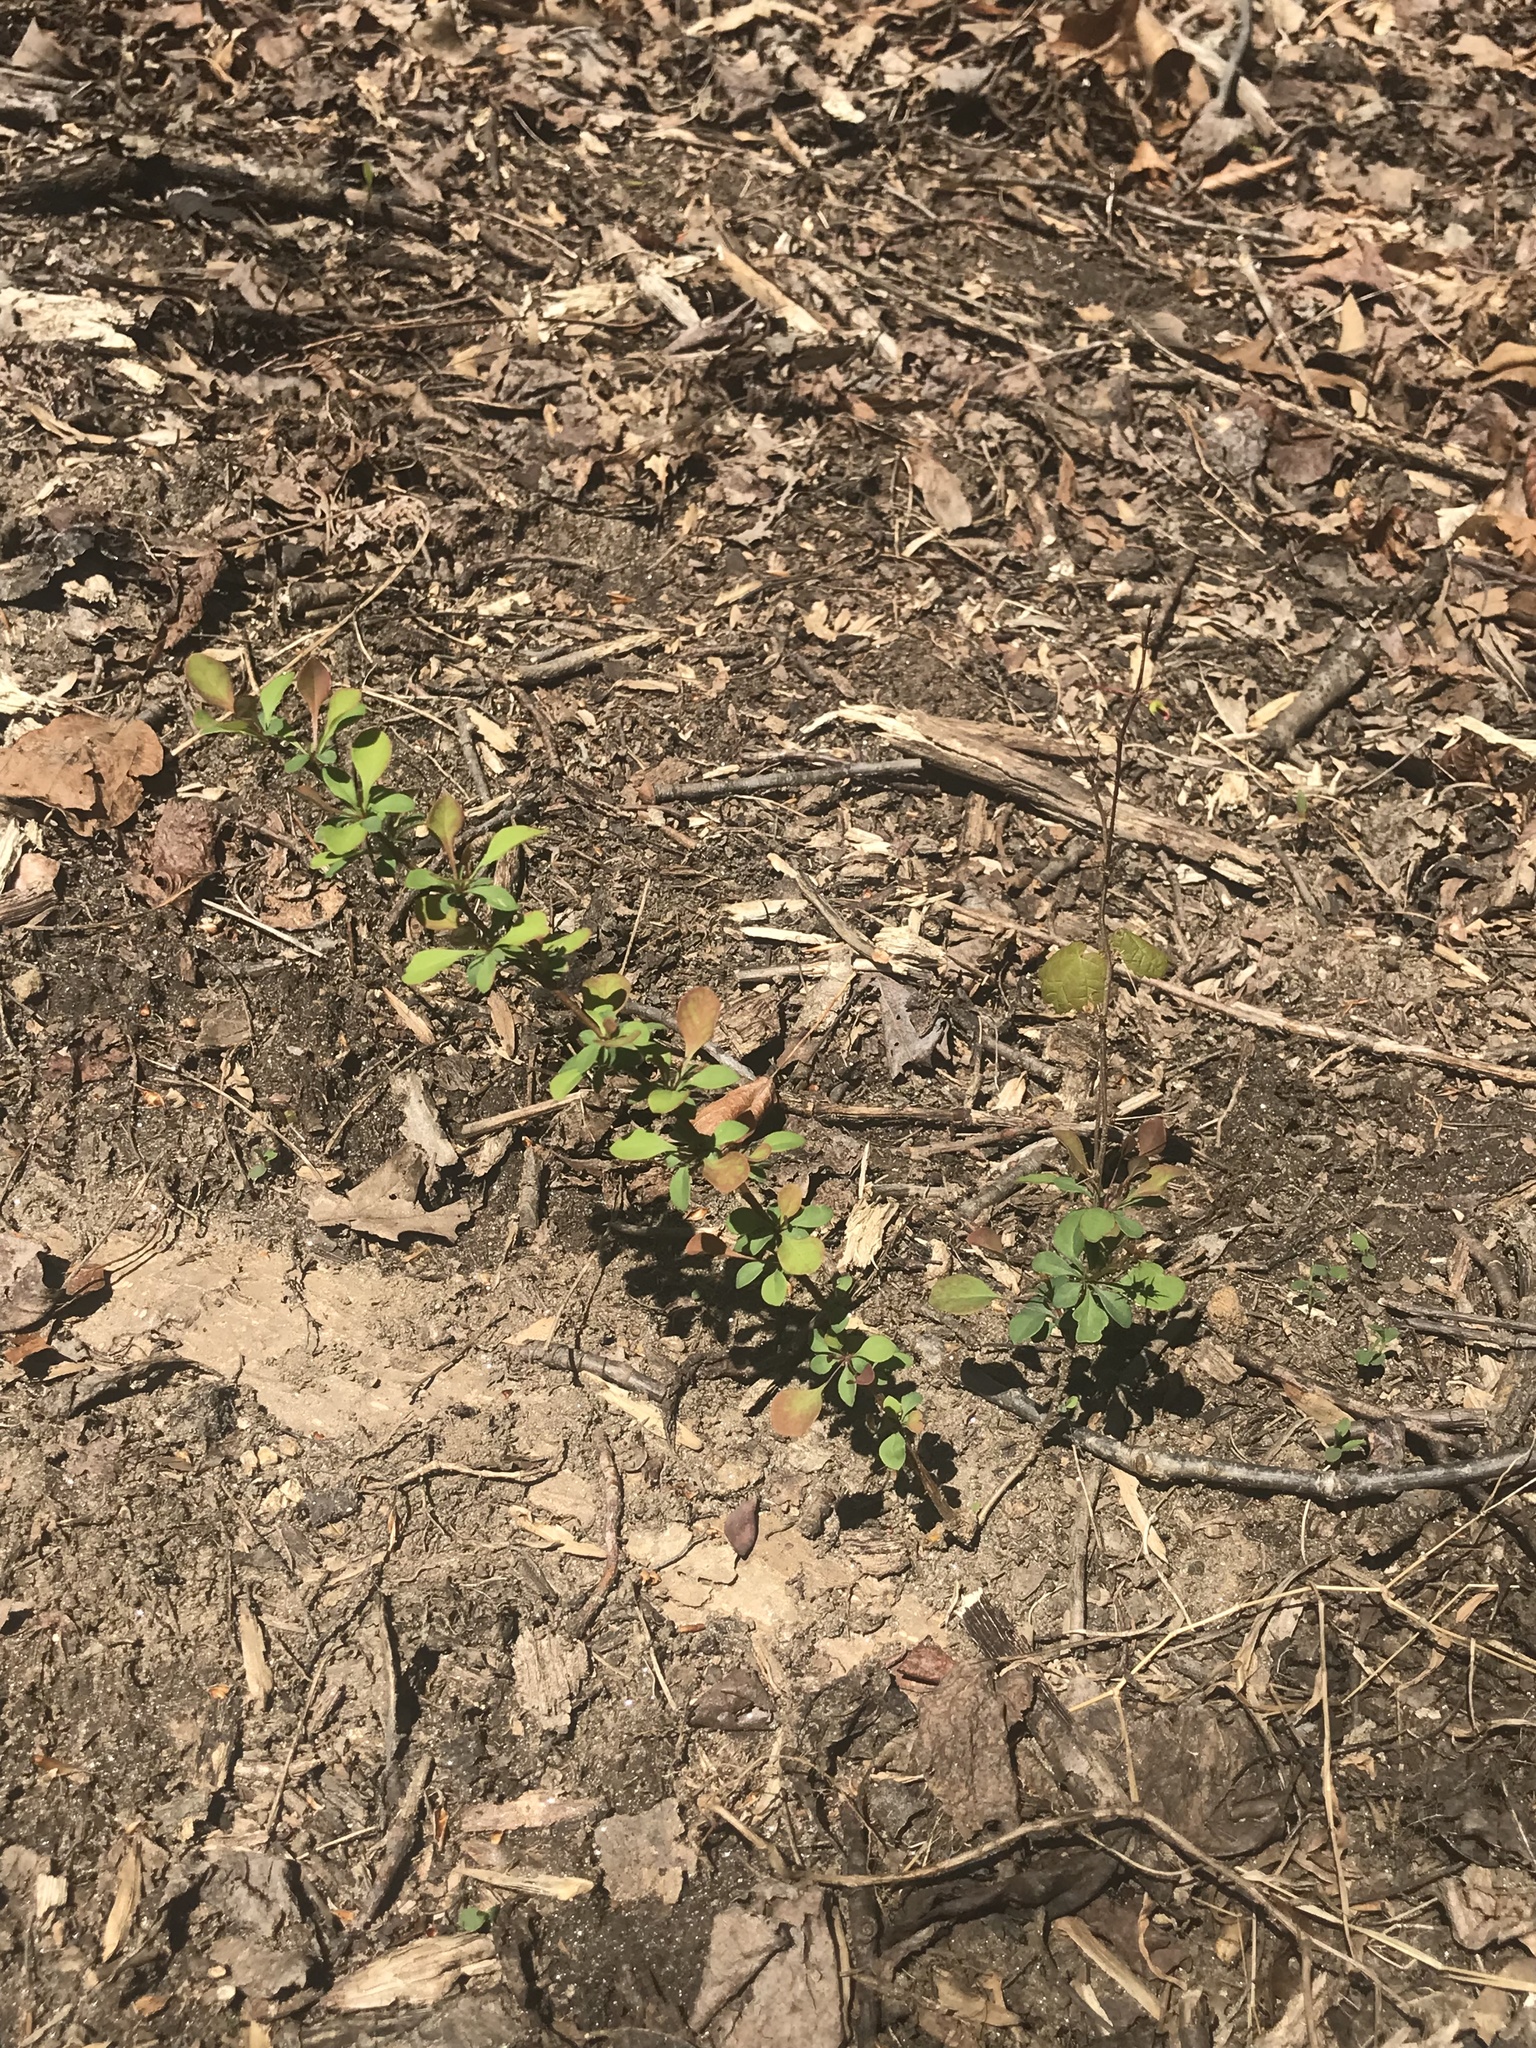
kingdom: Plantae
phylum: Tracheophyta
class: Magnoliopsida
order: Ranunculales
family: Berberidaceae
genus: Berberis
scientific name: Berberis thunbergii
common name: Japanese barberry
